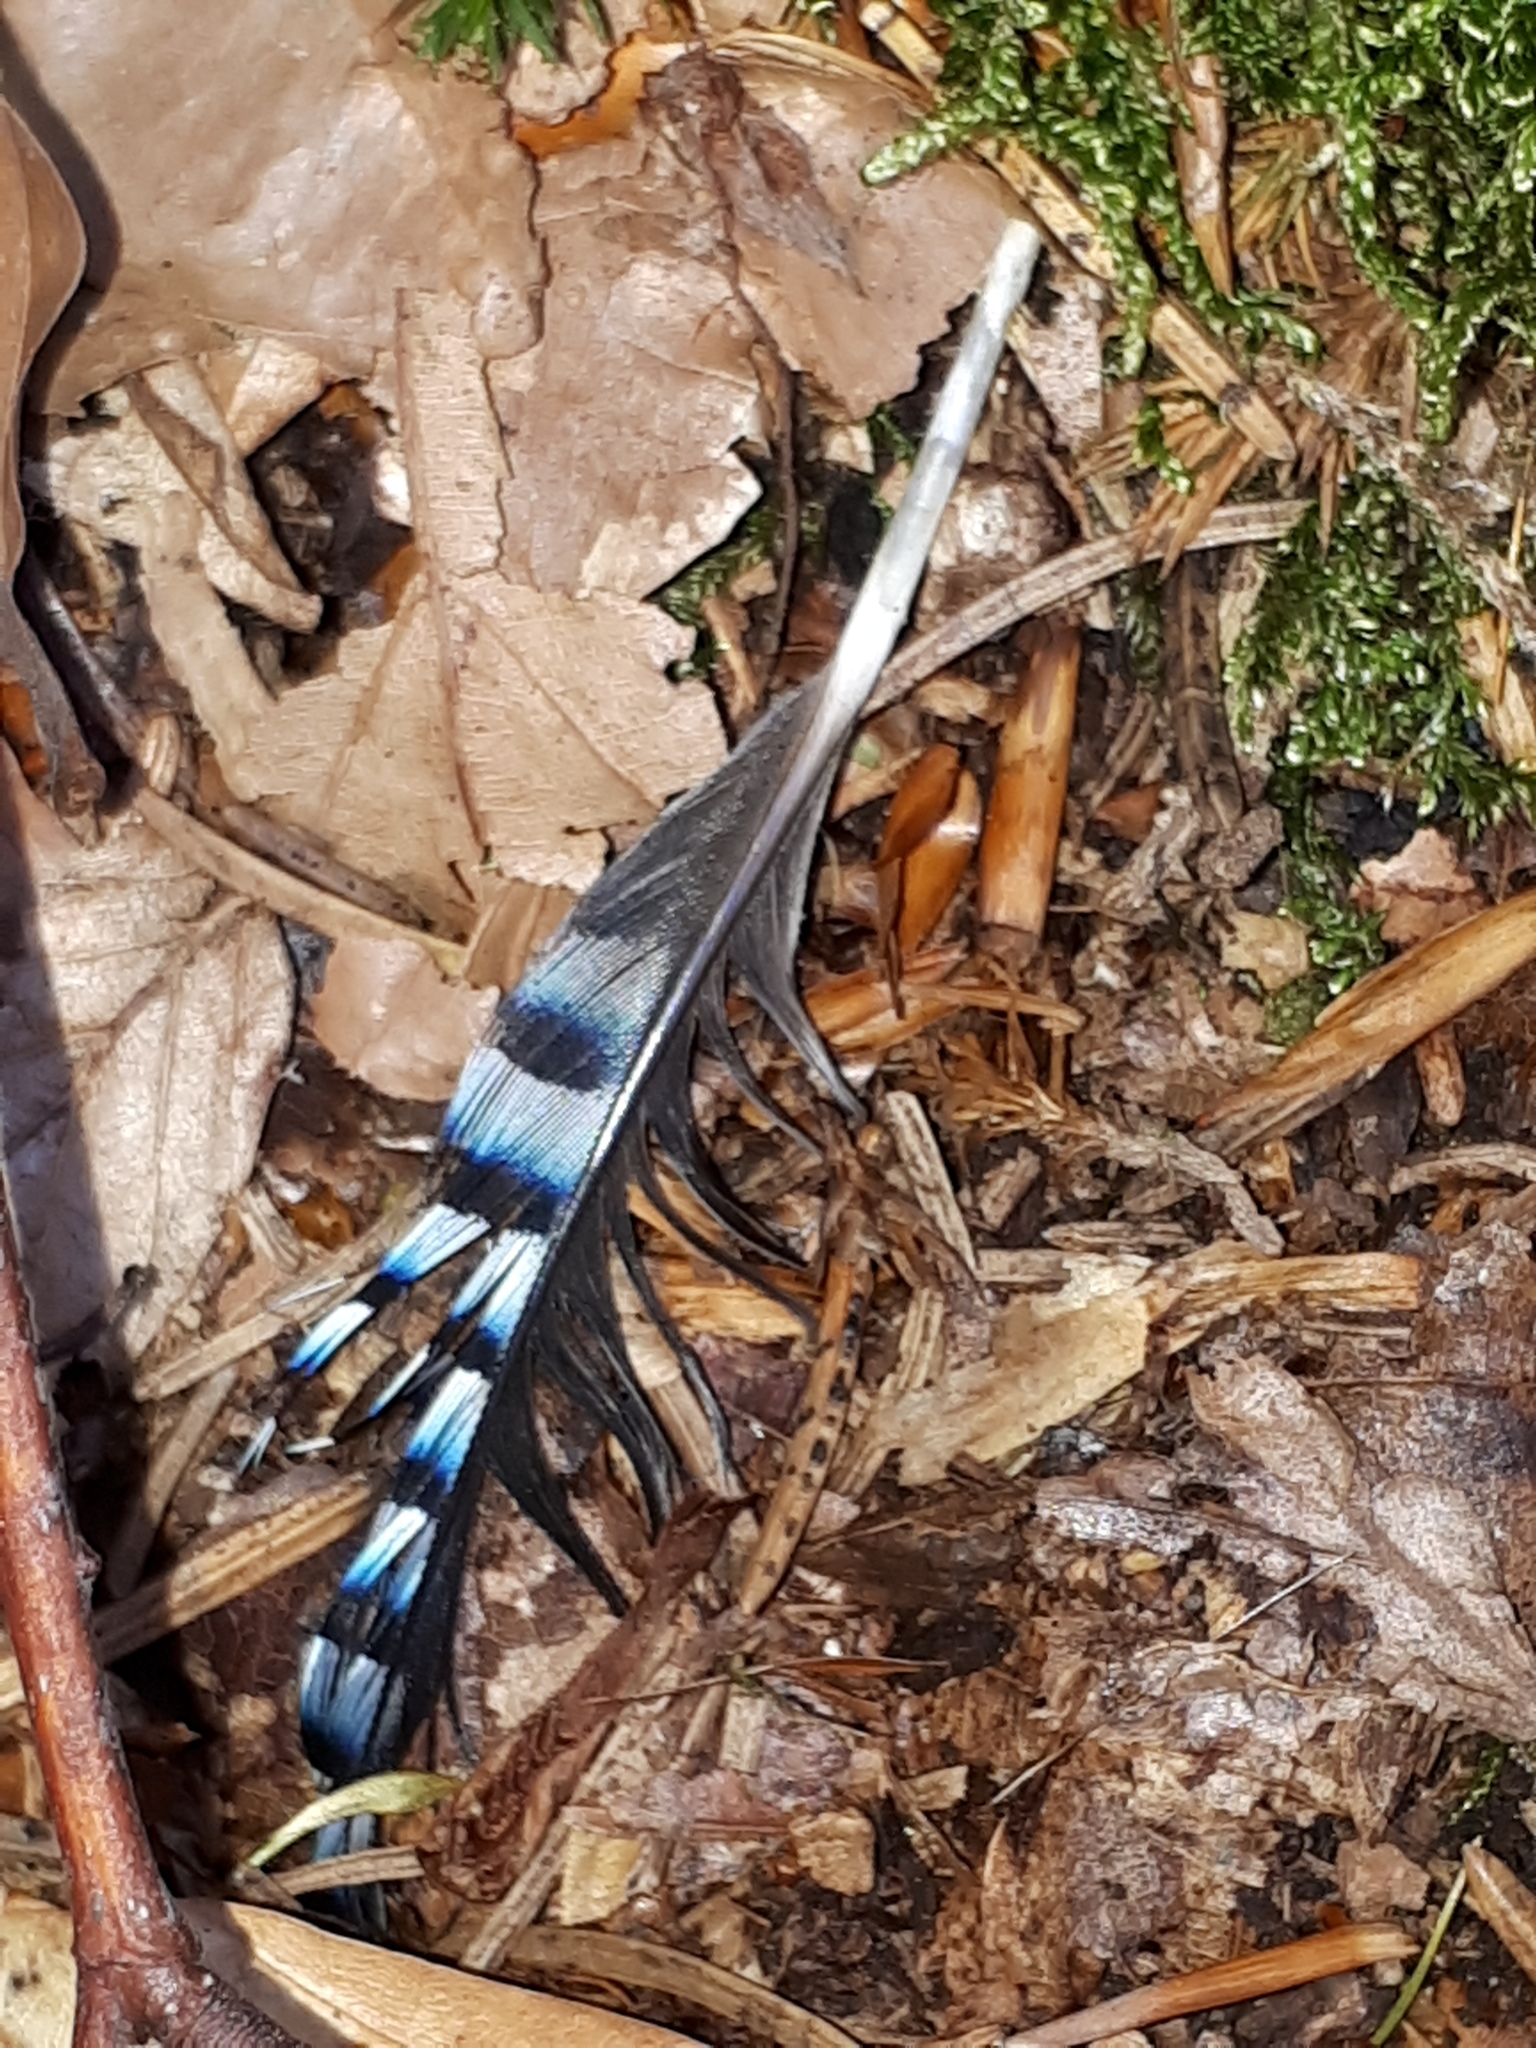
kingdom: Animalia
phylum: Chordata
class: Aves
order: Passeriformes
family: Corvidae
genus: Garrulus
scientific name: Garrulus glandarius
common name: Eurasian jay
